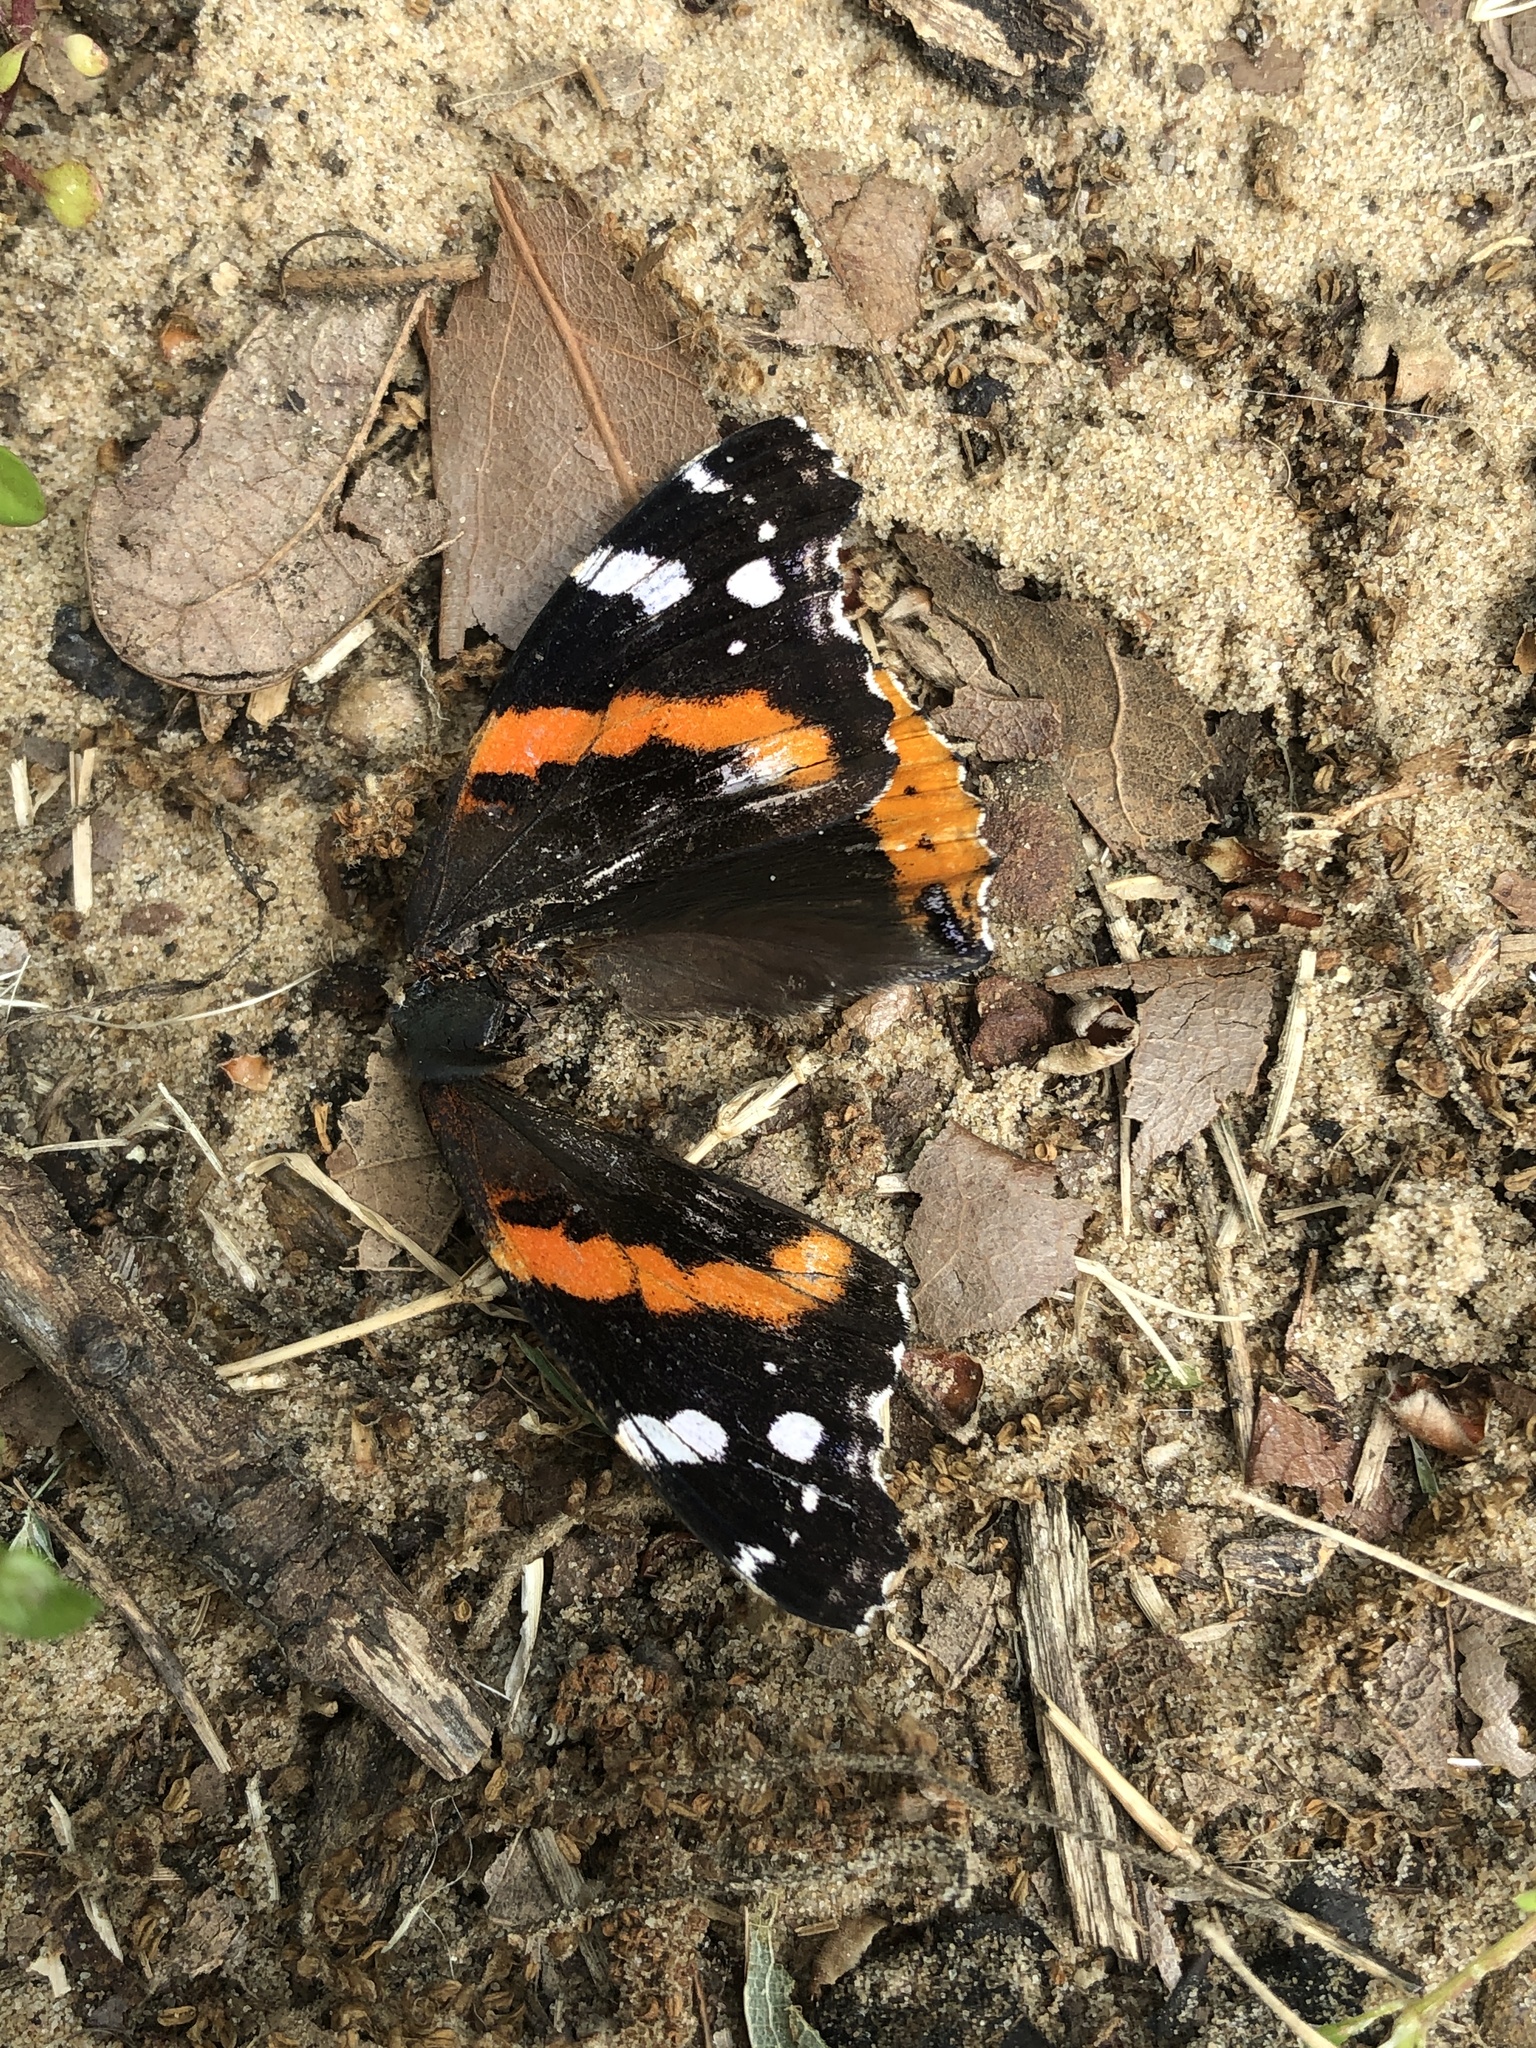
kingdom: Animalia
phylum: Arthropoda
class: Insecta
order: Lepidoptera
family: Nymphalidae
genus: Vanessa
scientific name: Vanessa atalanta
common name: Red admiral
